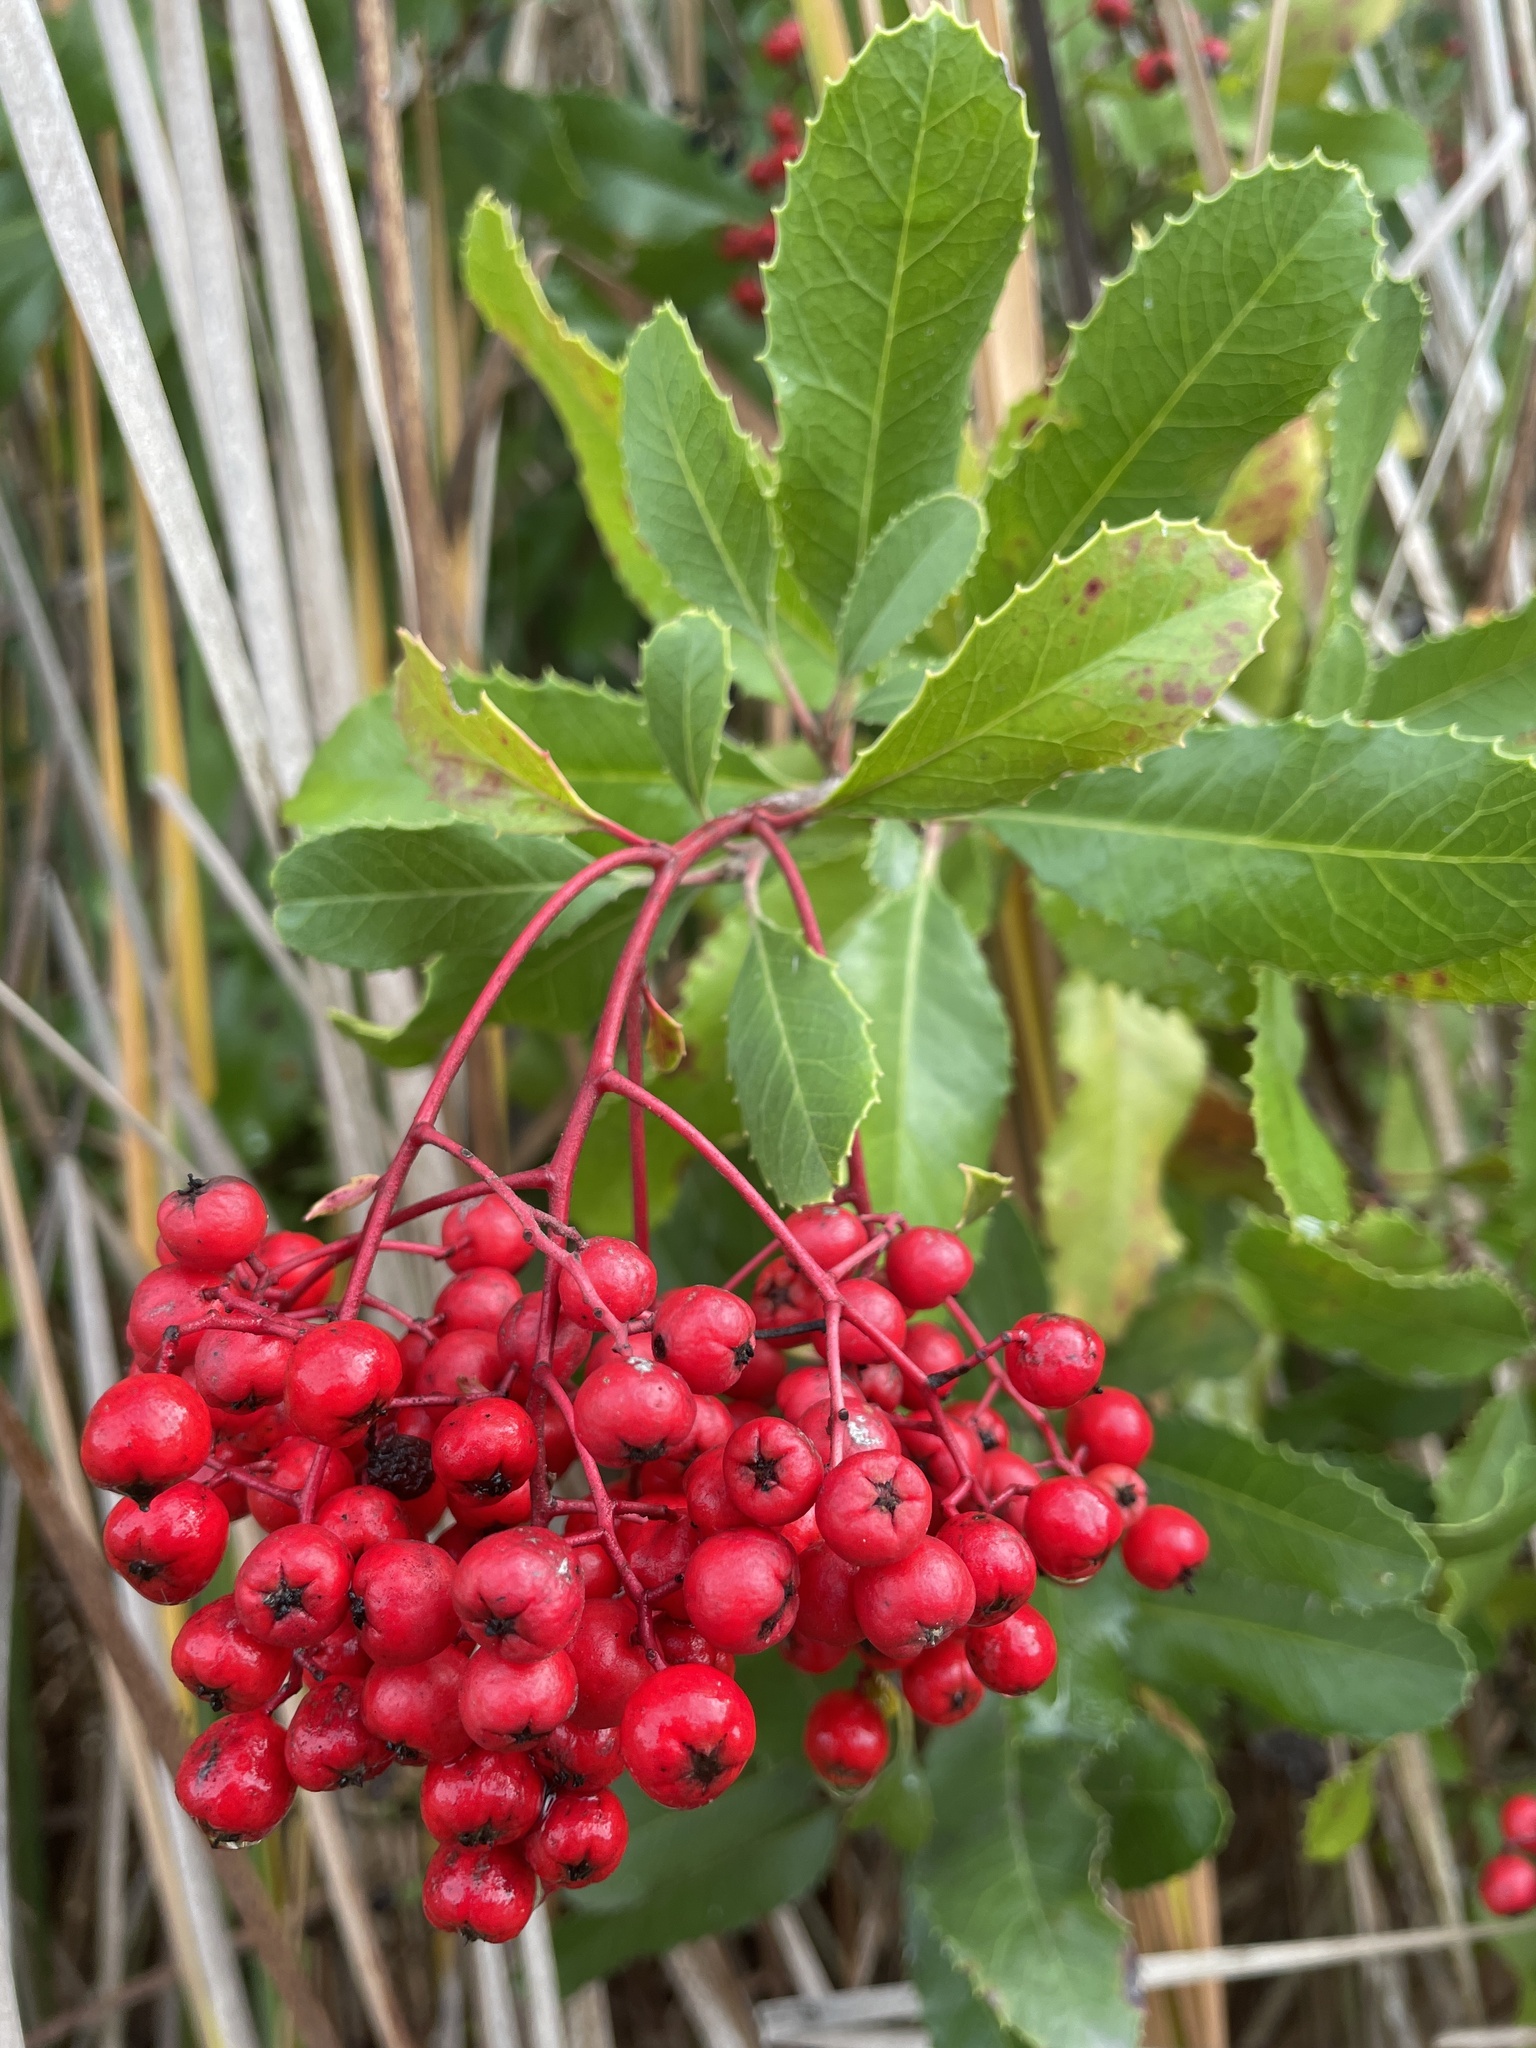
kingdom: Plantae
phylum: Tracheophyta
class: Magnoliopsida
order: Rosales
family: Rosaceae
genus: Heteromeles
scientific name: Heteromeles arbutifolia
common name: California-holly
